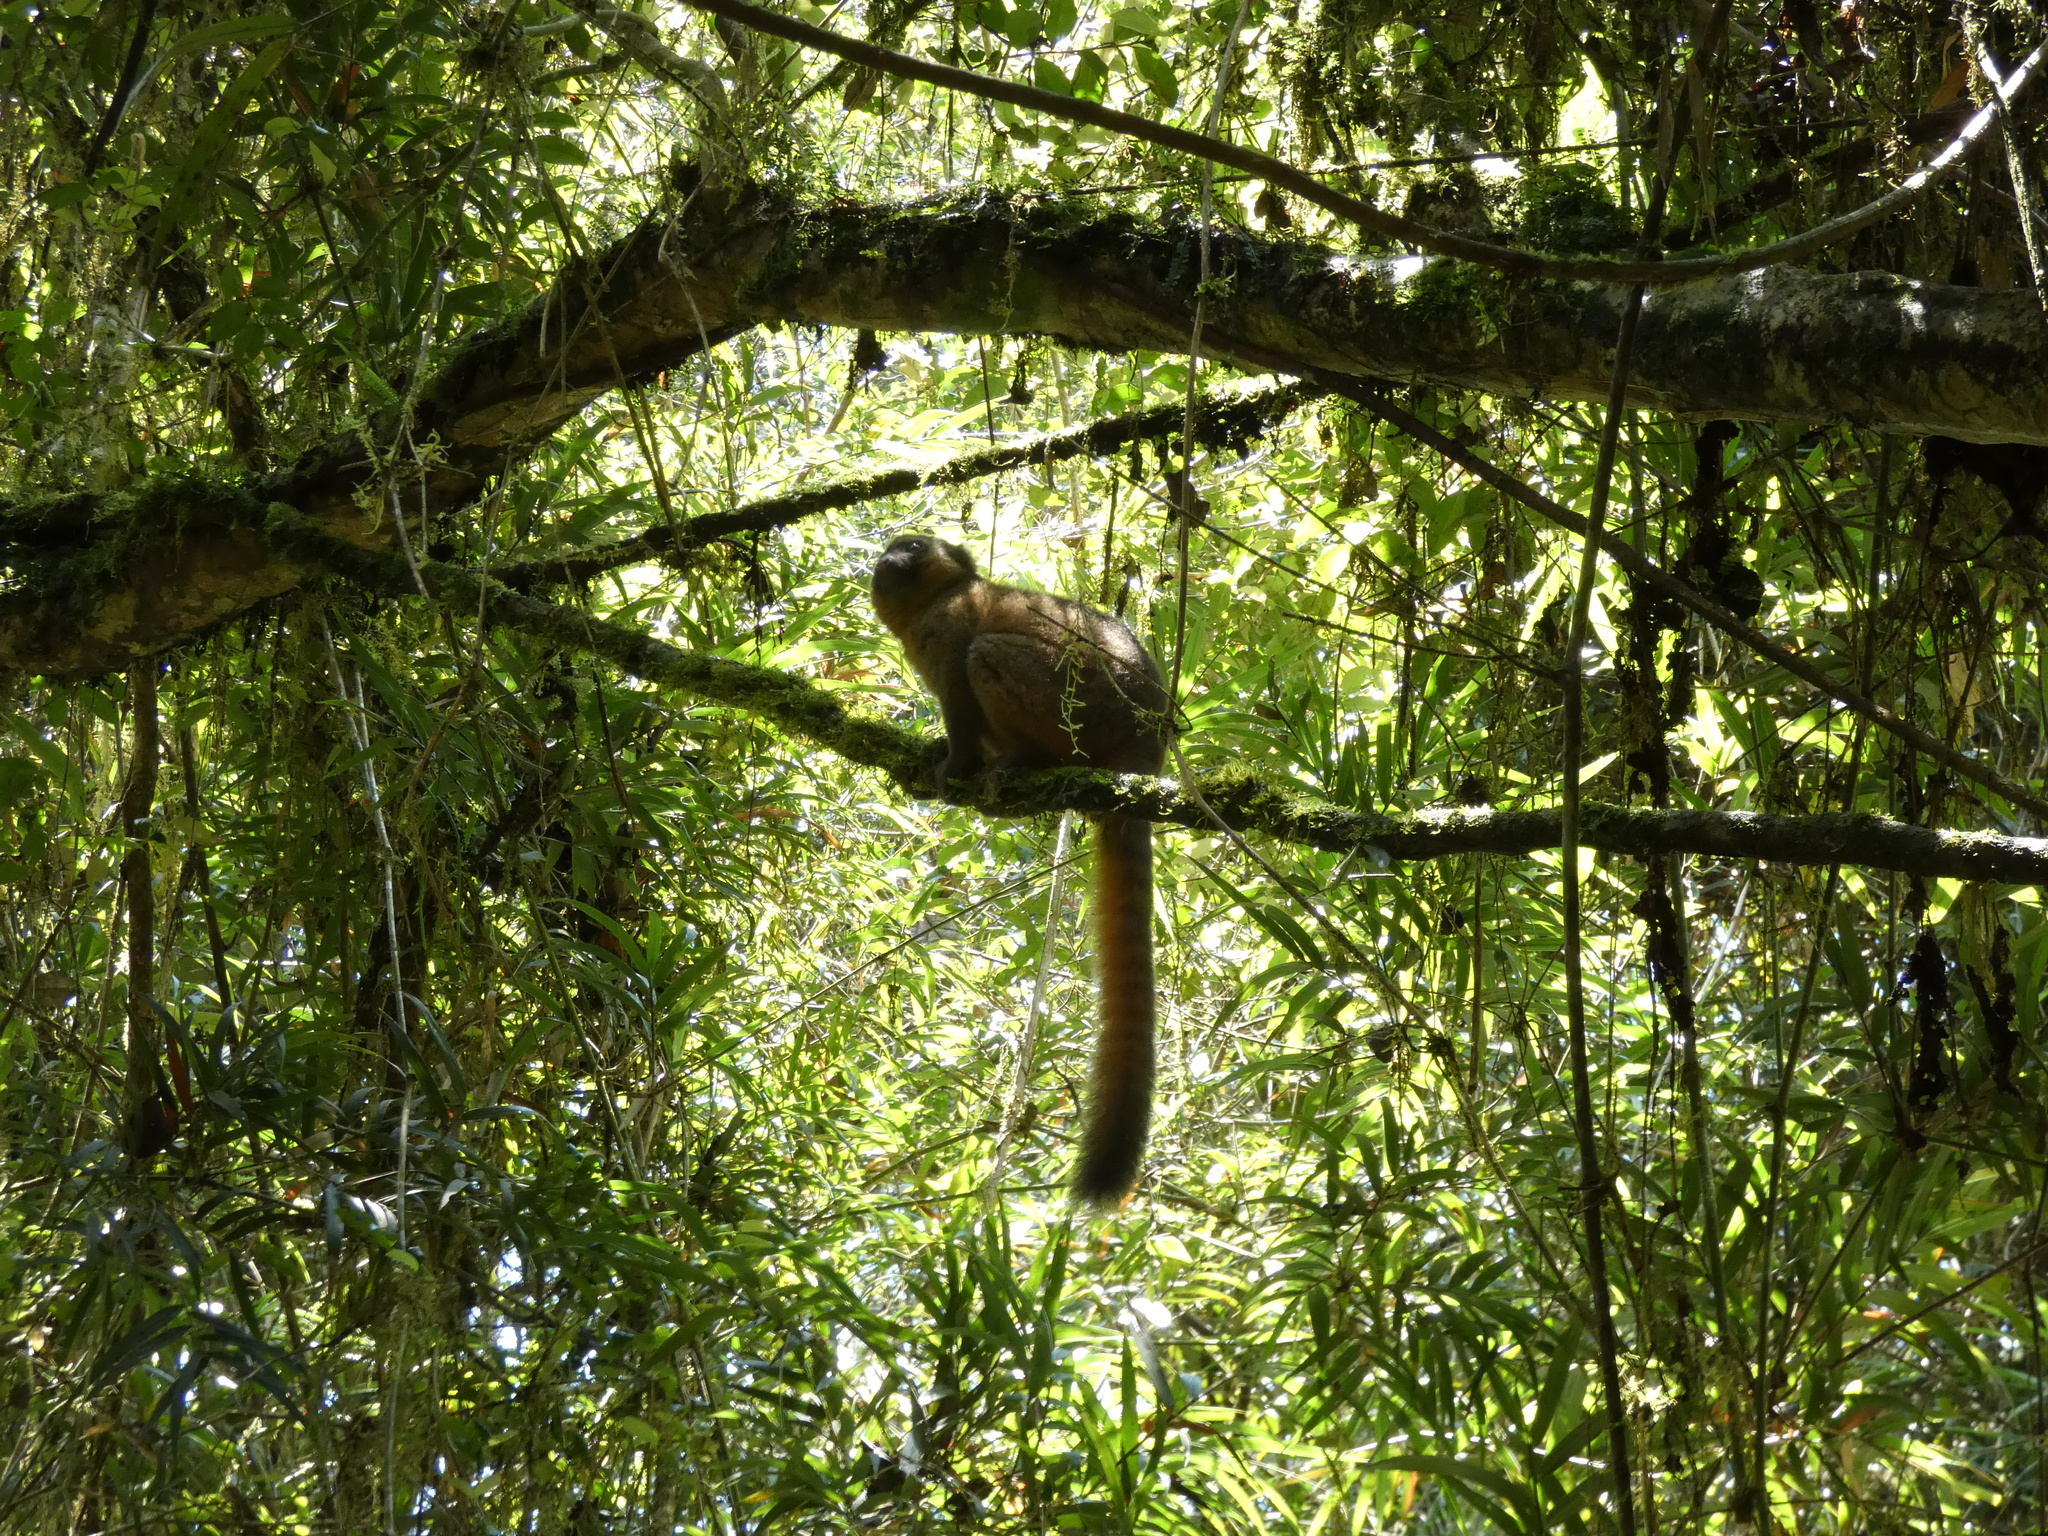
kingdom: Animalia
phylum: Chordata
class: Mammalia
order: Primates
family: Lemuridae
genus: Hapalemur
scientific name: Hapalemur aureus
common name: Golden bamboo lemur
